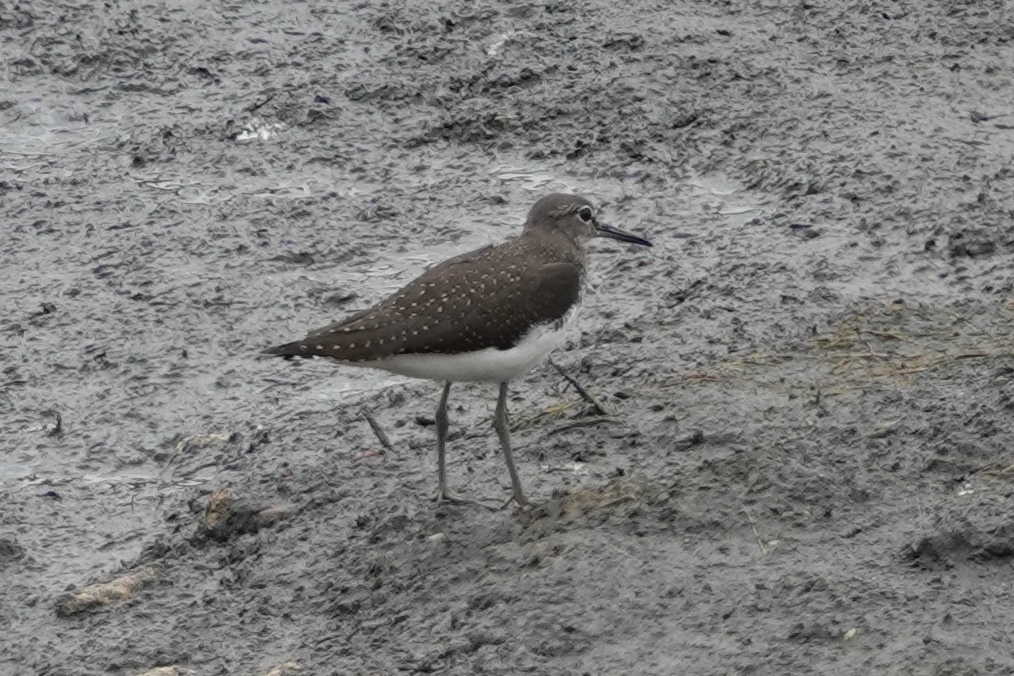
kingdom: Animalia
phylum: Chordata
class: Aves
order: Charadriiformes
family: Scolopacidae
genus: Tringa
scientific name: Tringa ochropus
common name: Green sandpiper
